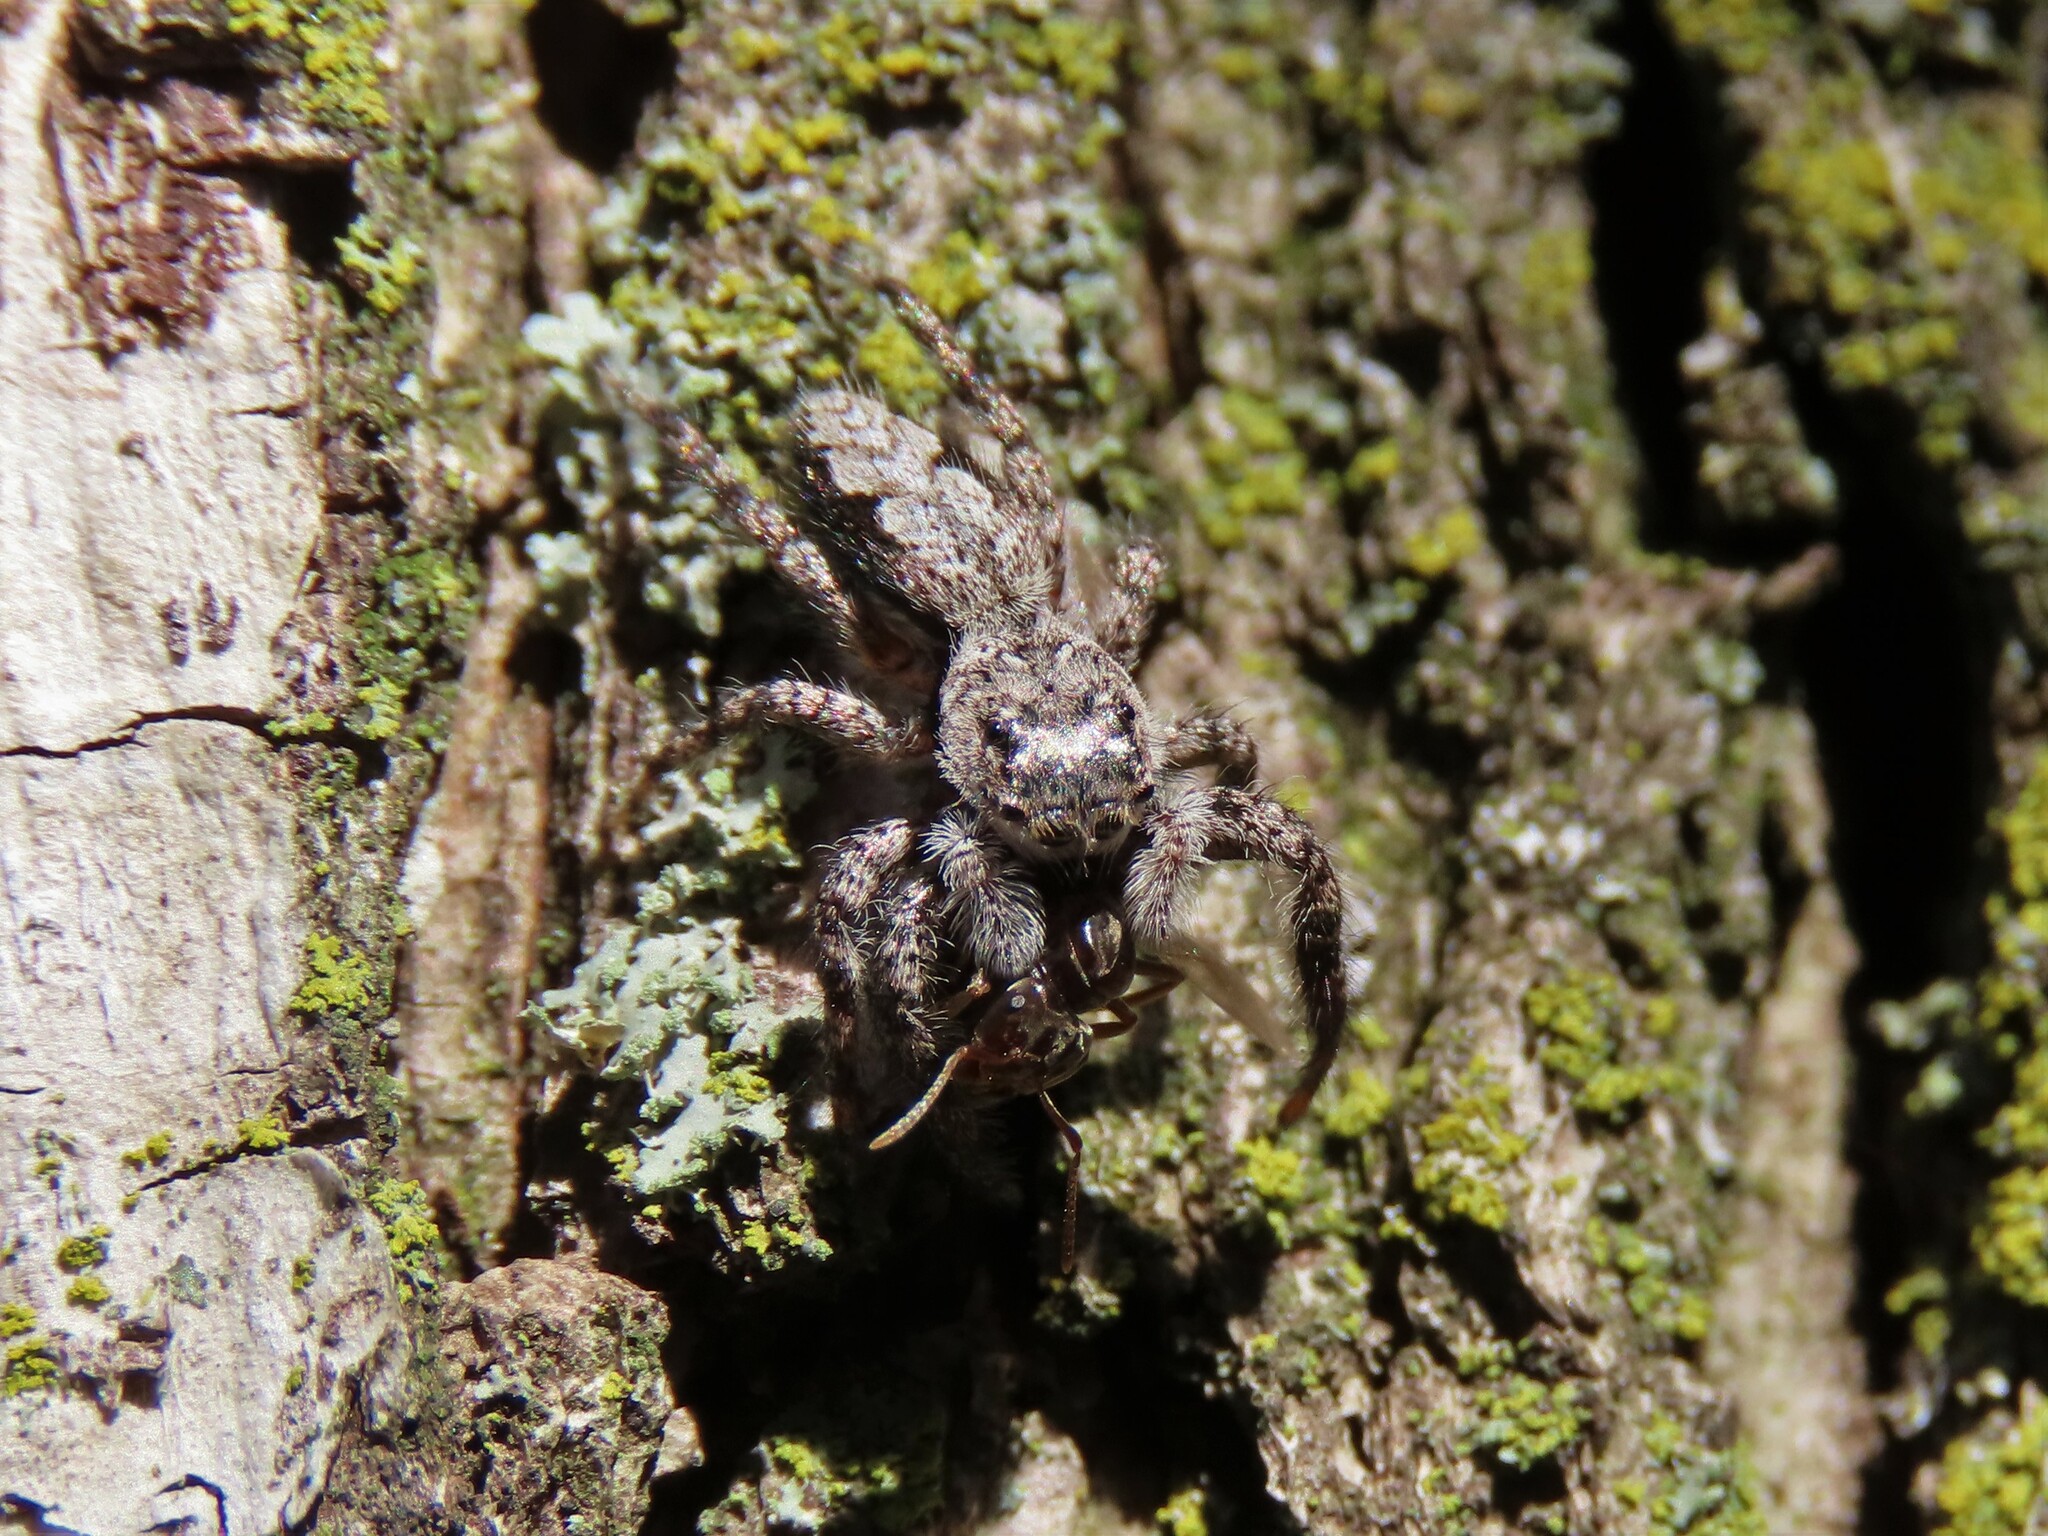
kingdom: Animalia
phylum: Arthropoda
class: Arachnida
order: Araneae
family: Salticidae
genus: Platycryptus
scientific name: Platycryptus undatus
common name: Tan jumping spider
